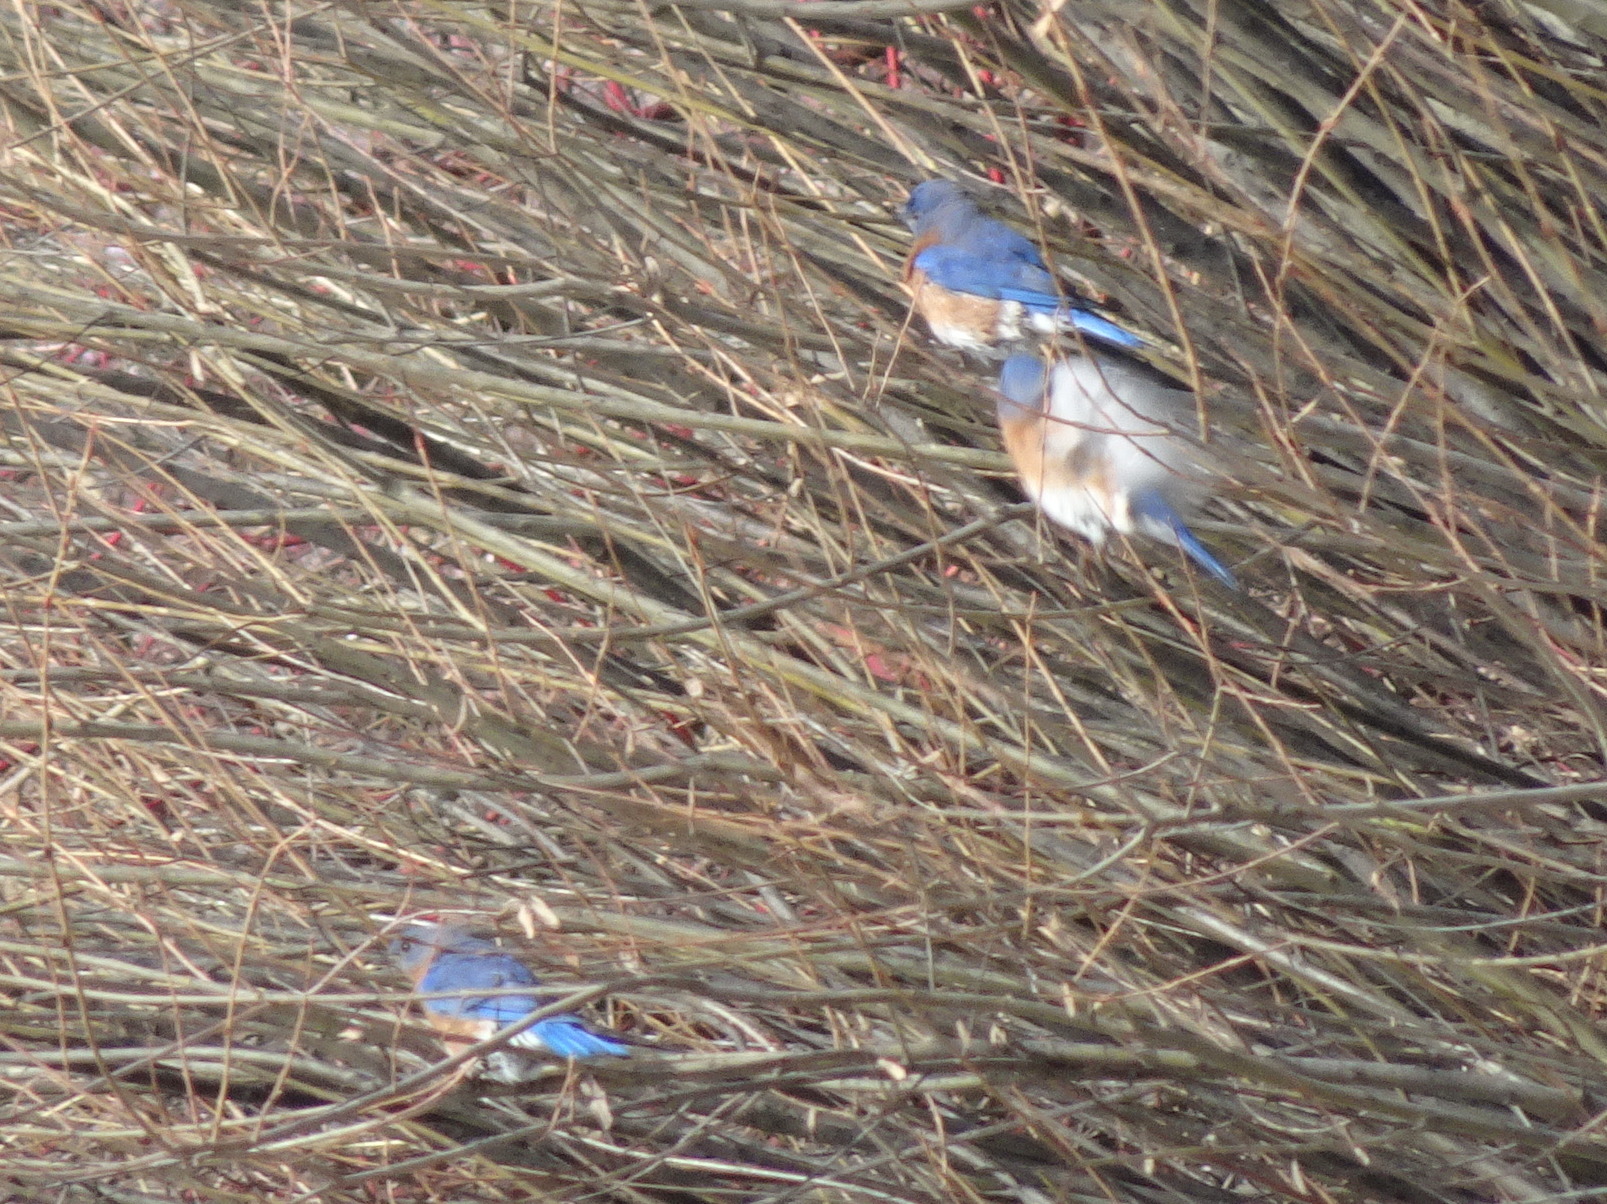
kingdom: Animalia
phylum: Chordata
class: Aves
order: Passeriformes
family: Turdidae
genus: Sialia
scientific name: Sialia sialis
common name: Eastern bluebird
